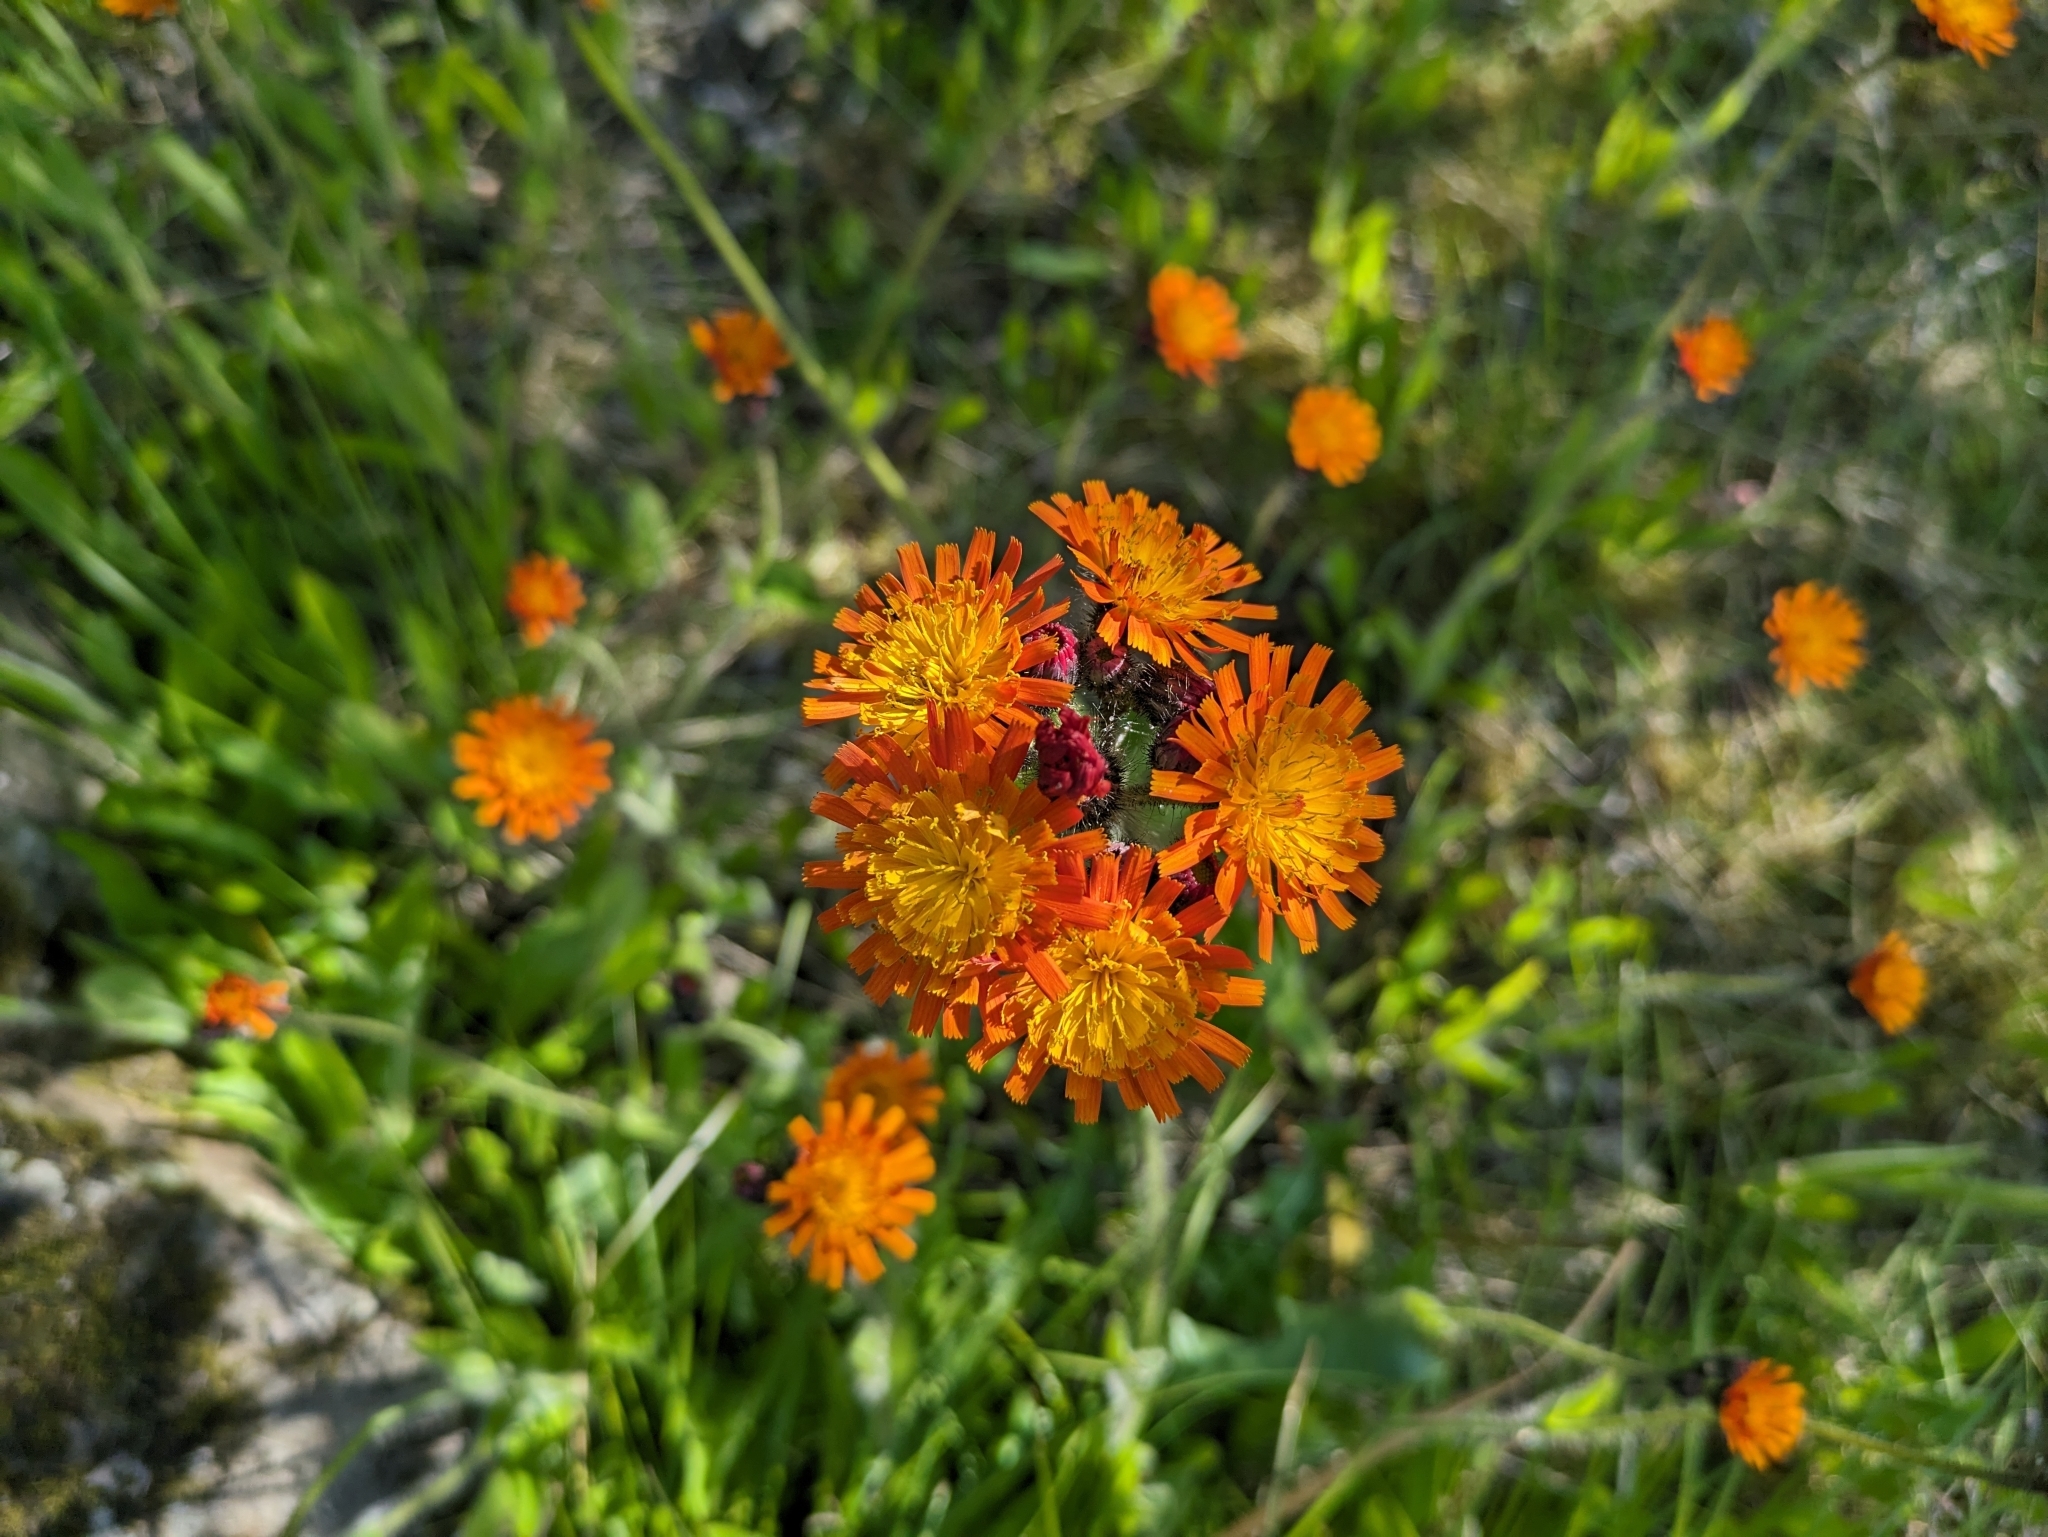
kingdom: Plantae
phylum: Tracheophyta
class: Magnoliopsida
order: Asterales
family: Asteraceae
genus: Pilosella
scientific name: Pilosella aurantiaca
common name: Fox-and-cubs
